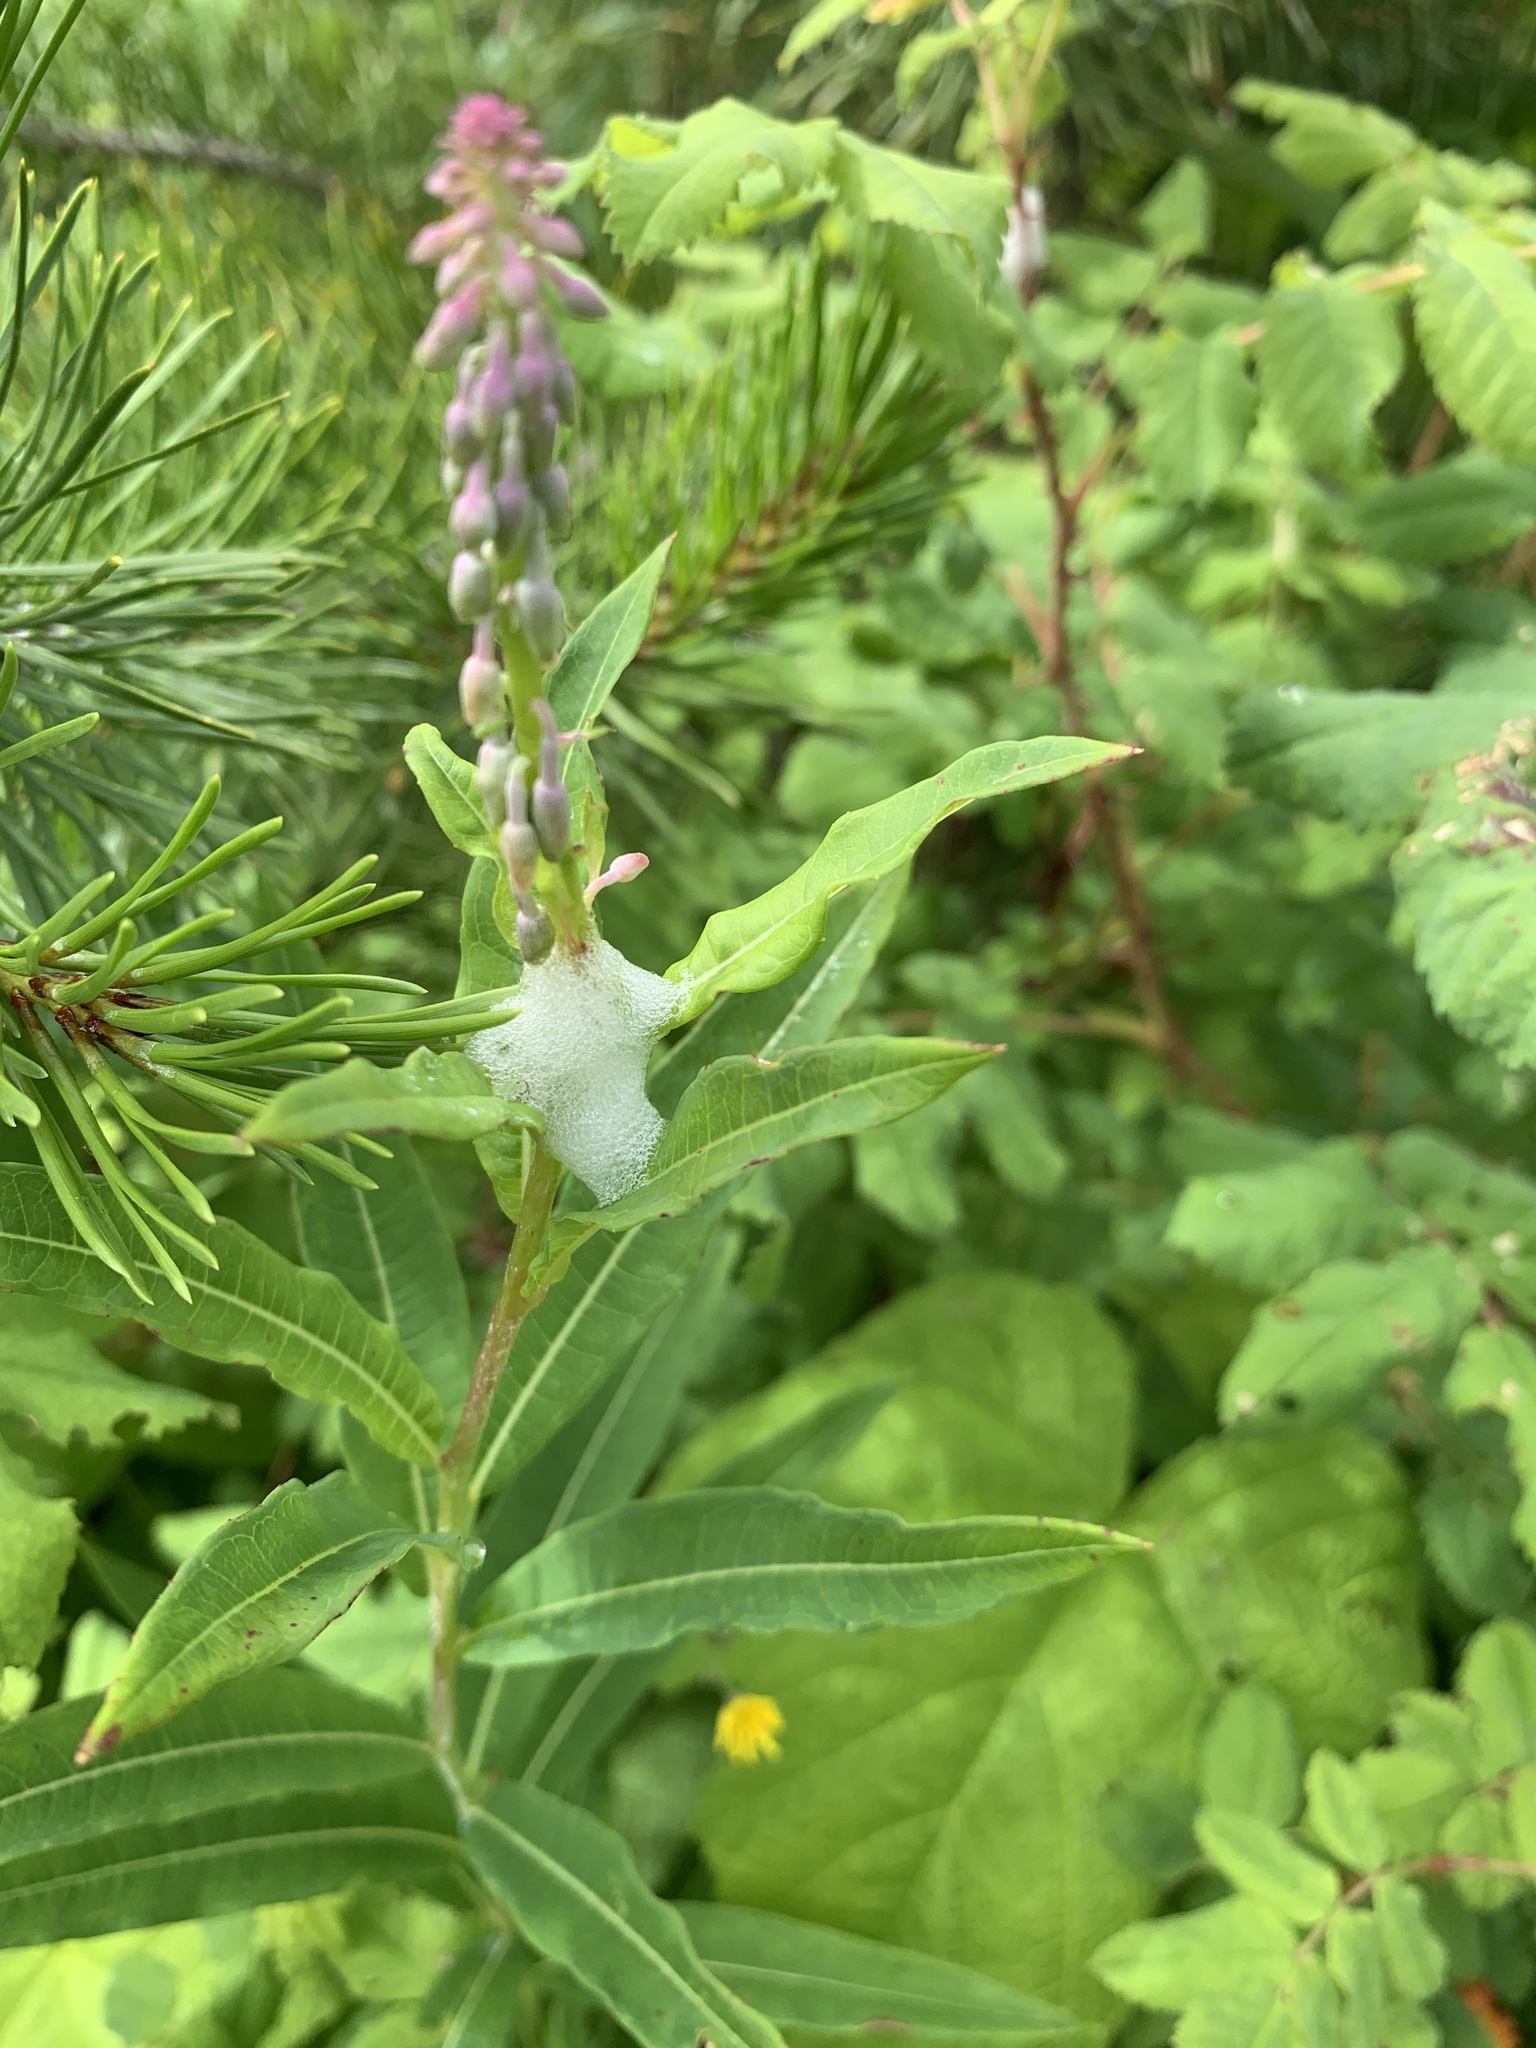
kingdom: Animalia
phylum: Arthropoda
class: Insecta
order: Hemiptera
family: Aphrophoridae
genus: Philaenus
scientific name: Philaenus spumarius
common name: Meadow spittlebug
